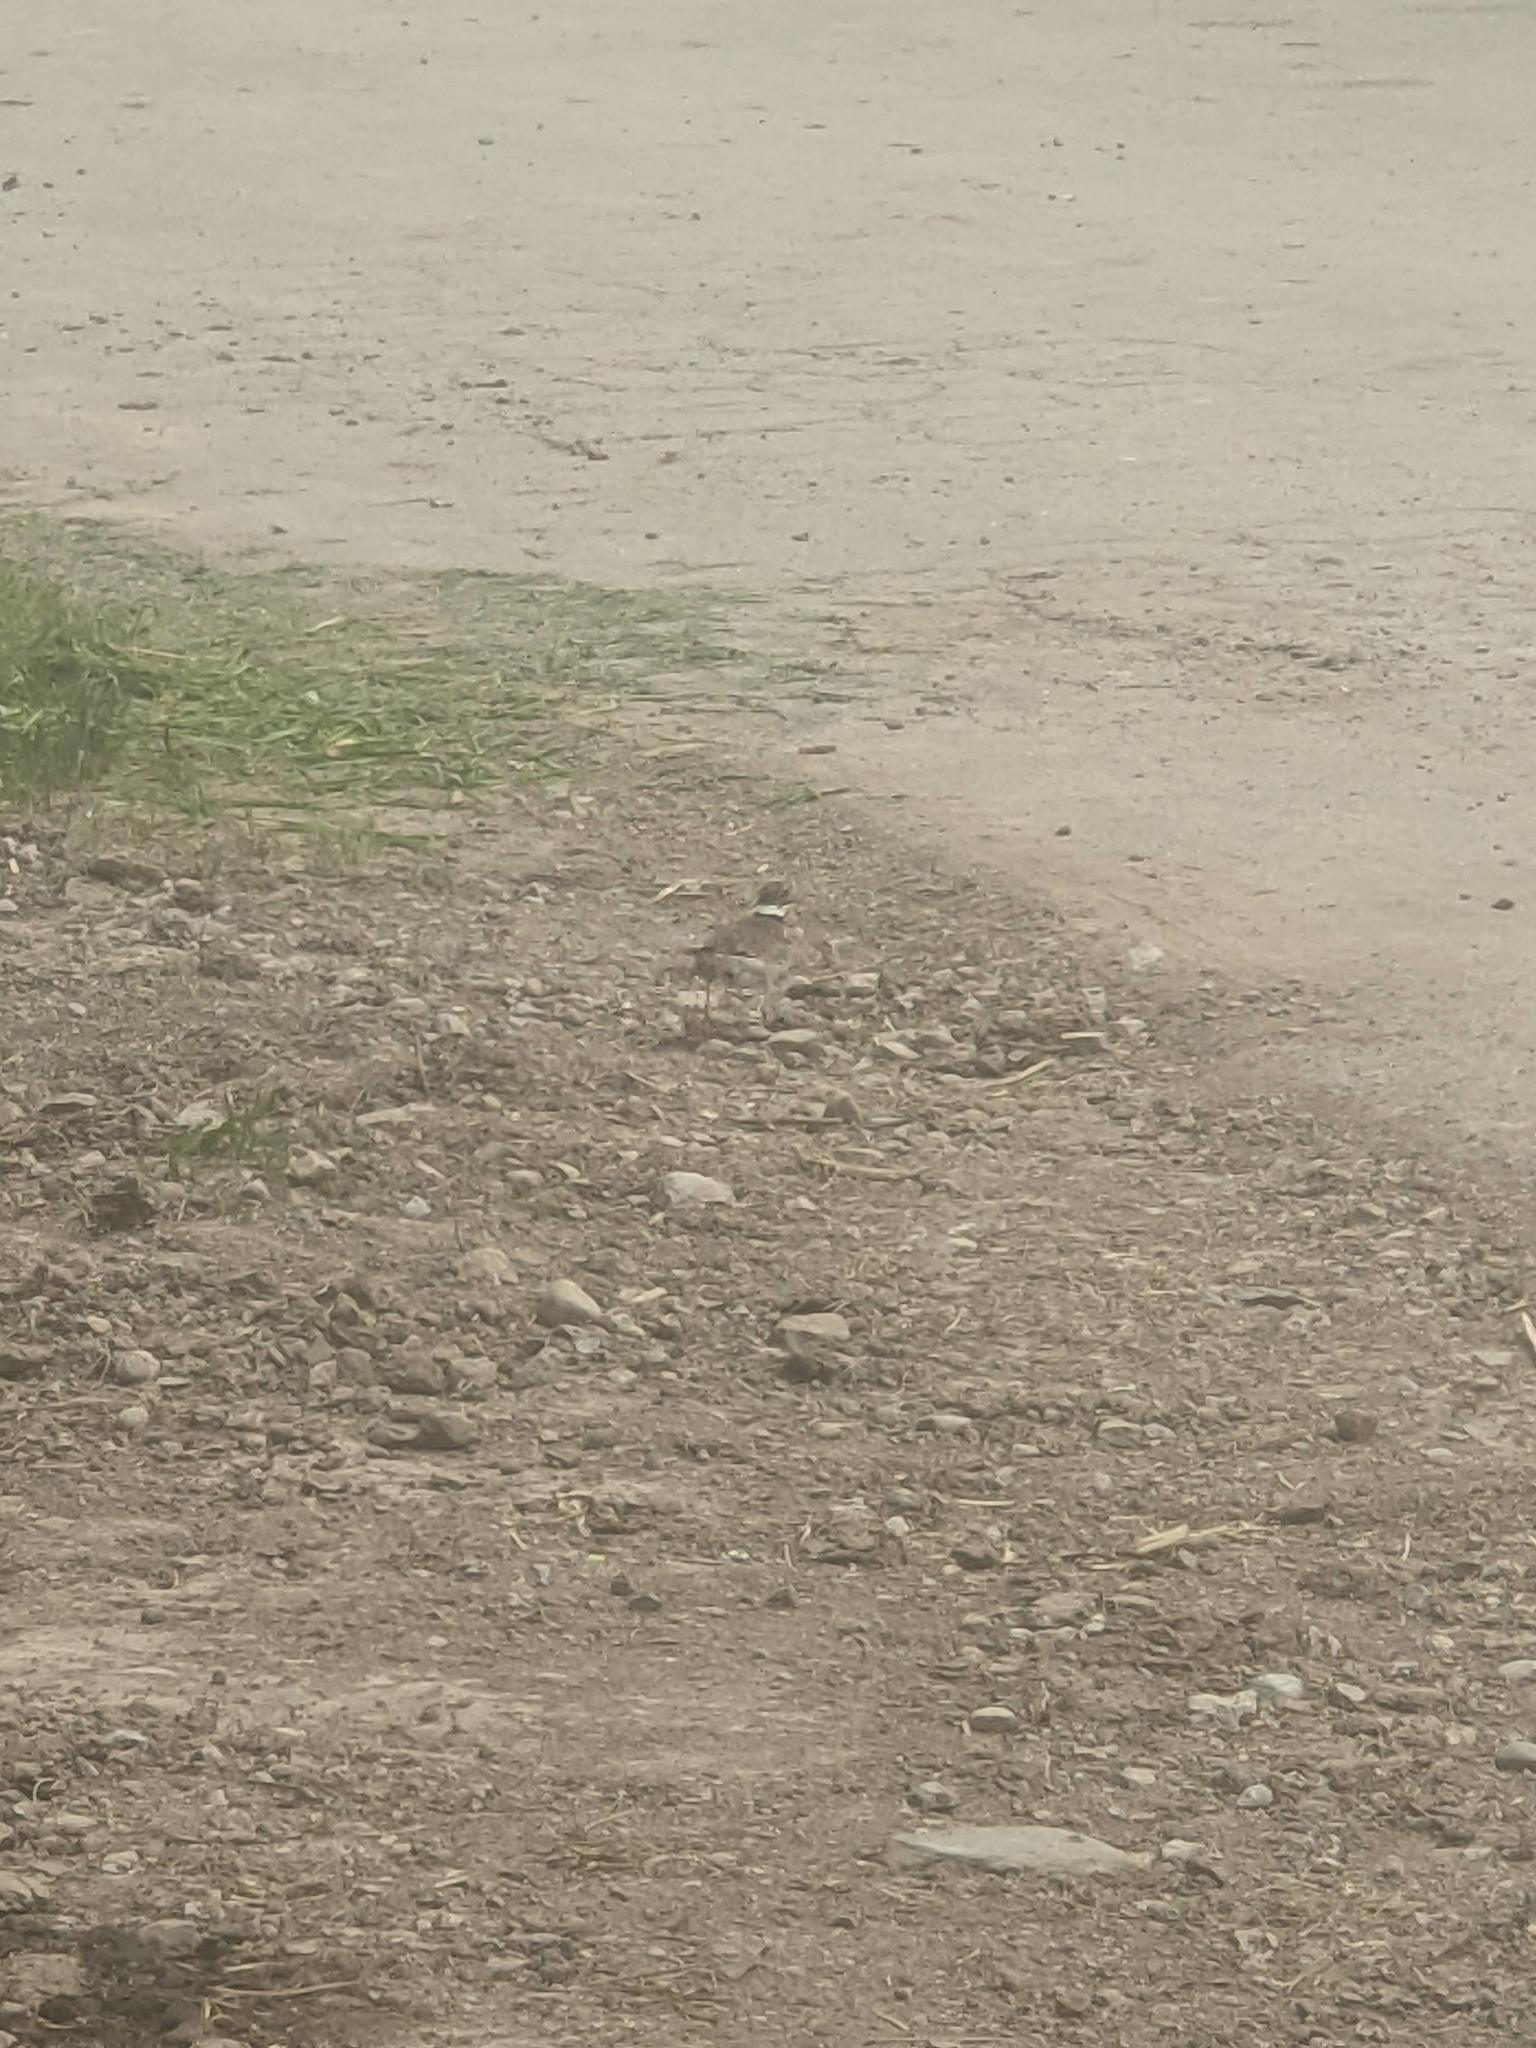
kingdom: Animalia
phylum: Chordata
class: Aves
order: Charadriiformes
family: Charadriidae
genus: Charadrius
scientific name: Charadrius vociferus
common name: Killdeer
